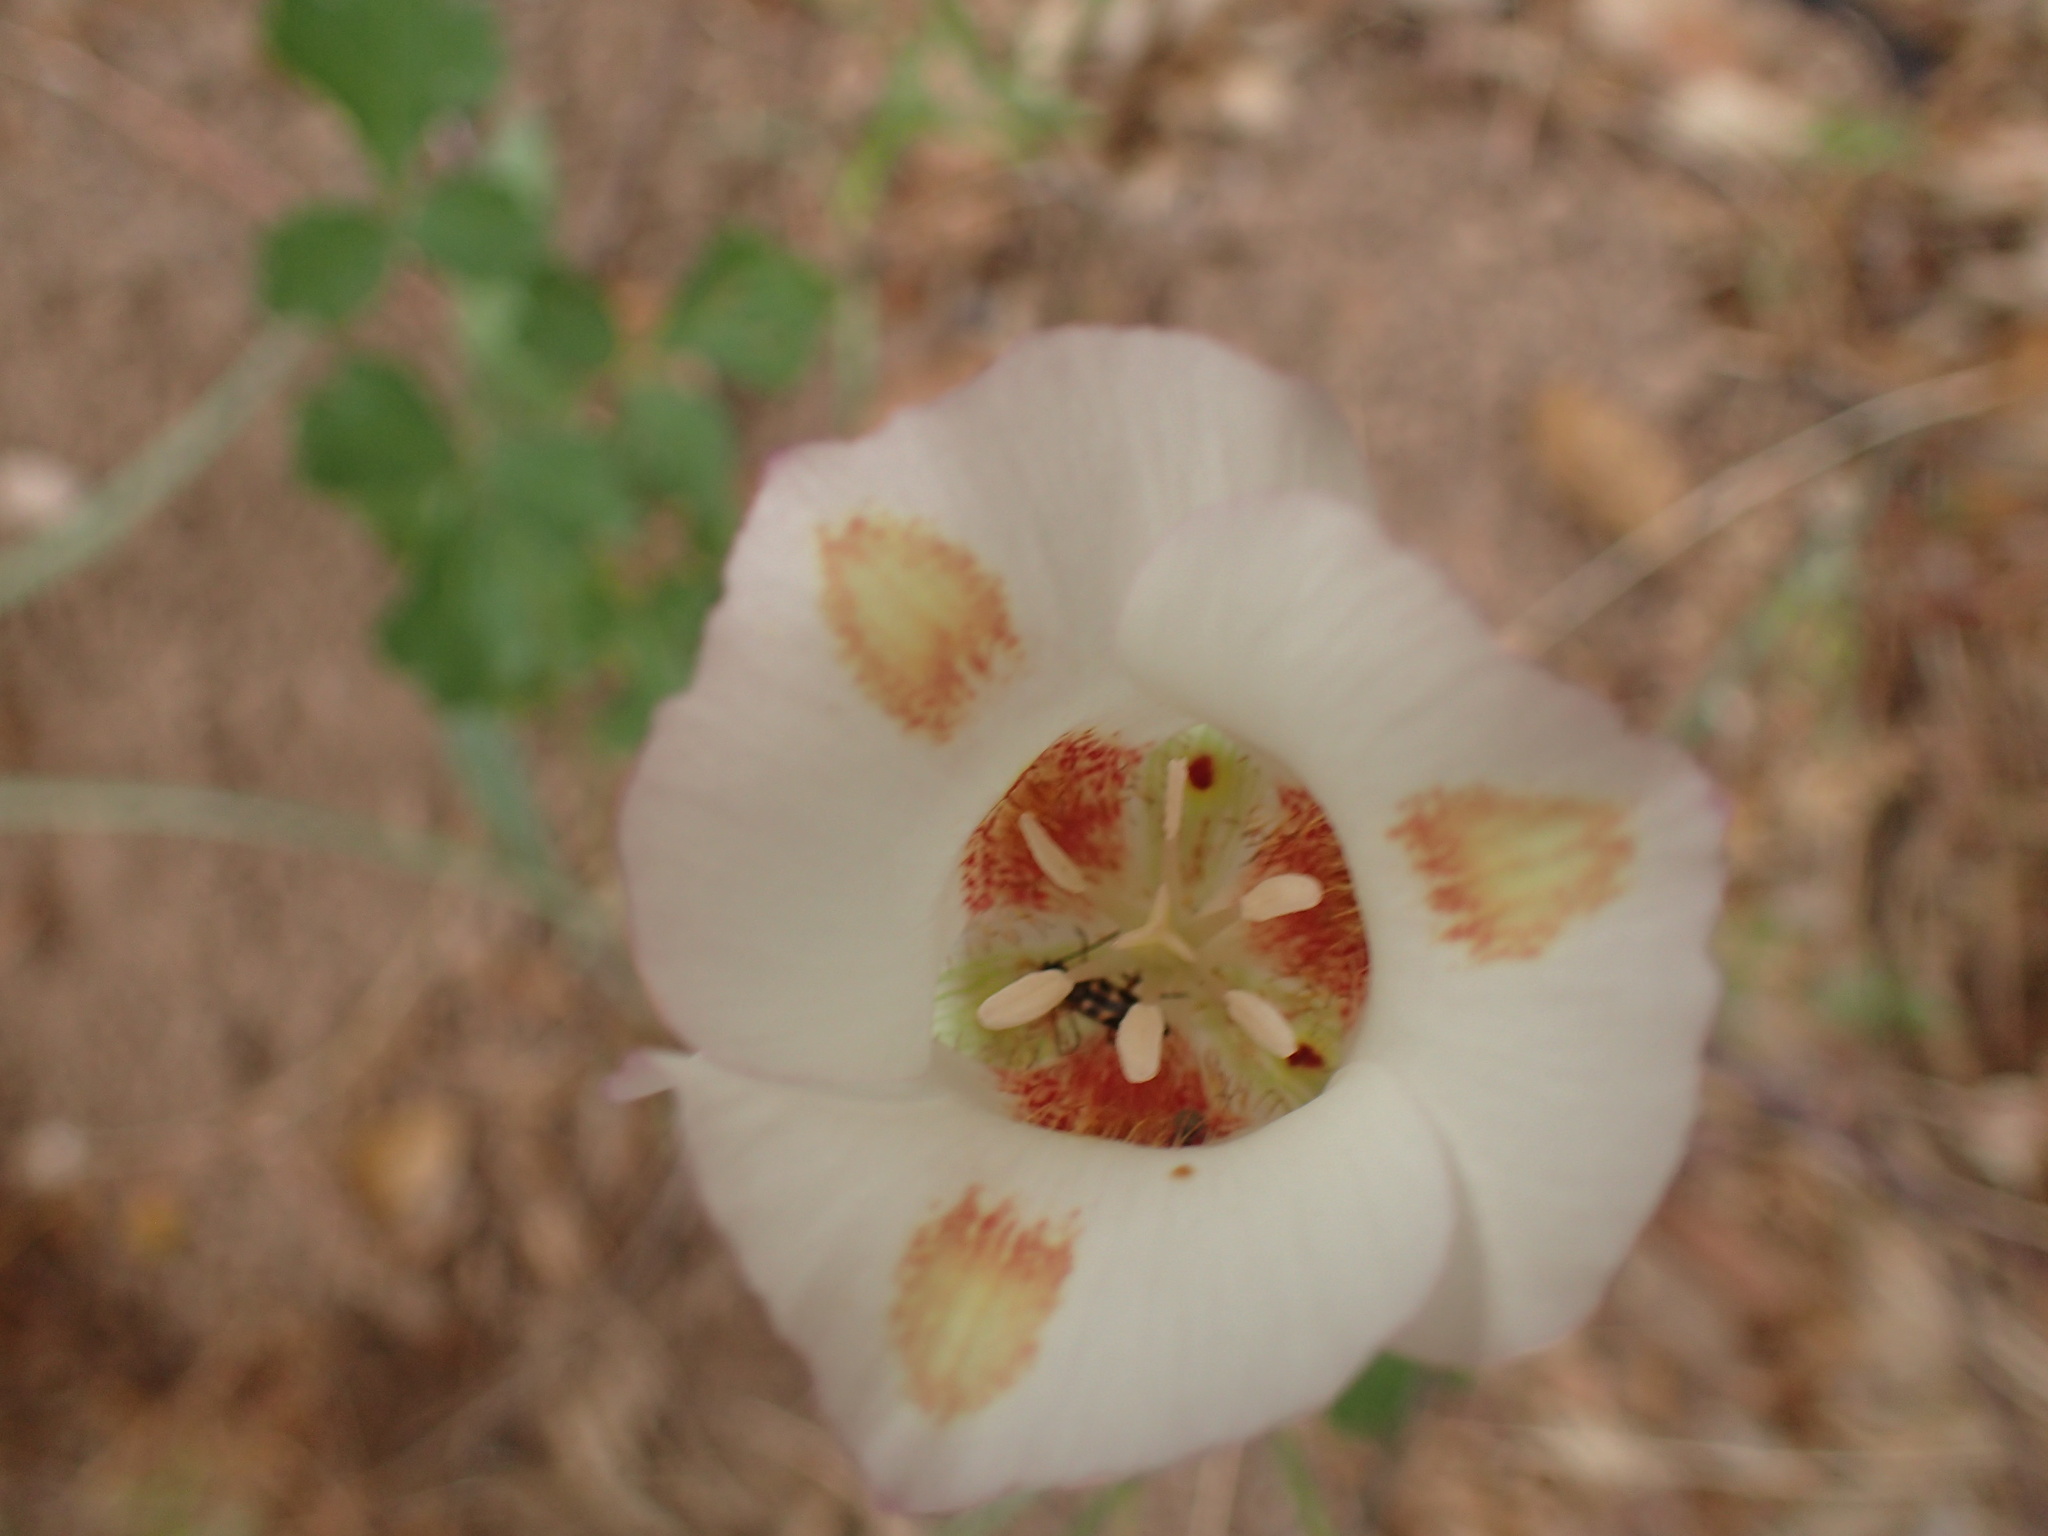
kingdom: Plantae
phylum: Tracheophyta
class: Liliopsida
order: Liliales
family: Liliaceae
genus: Calochortus
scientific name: Calochortus venustus
